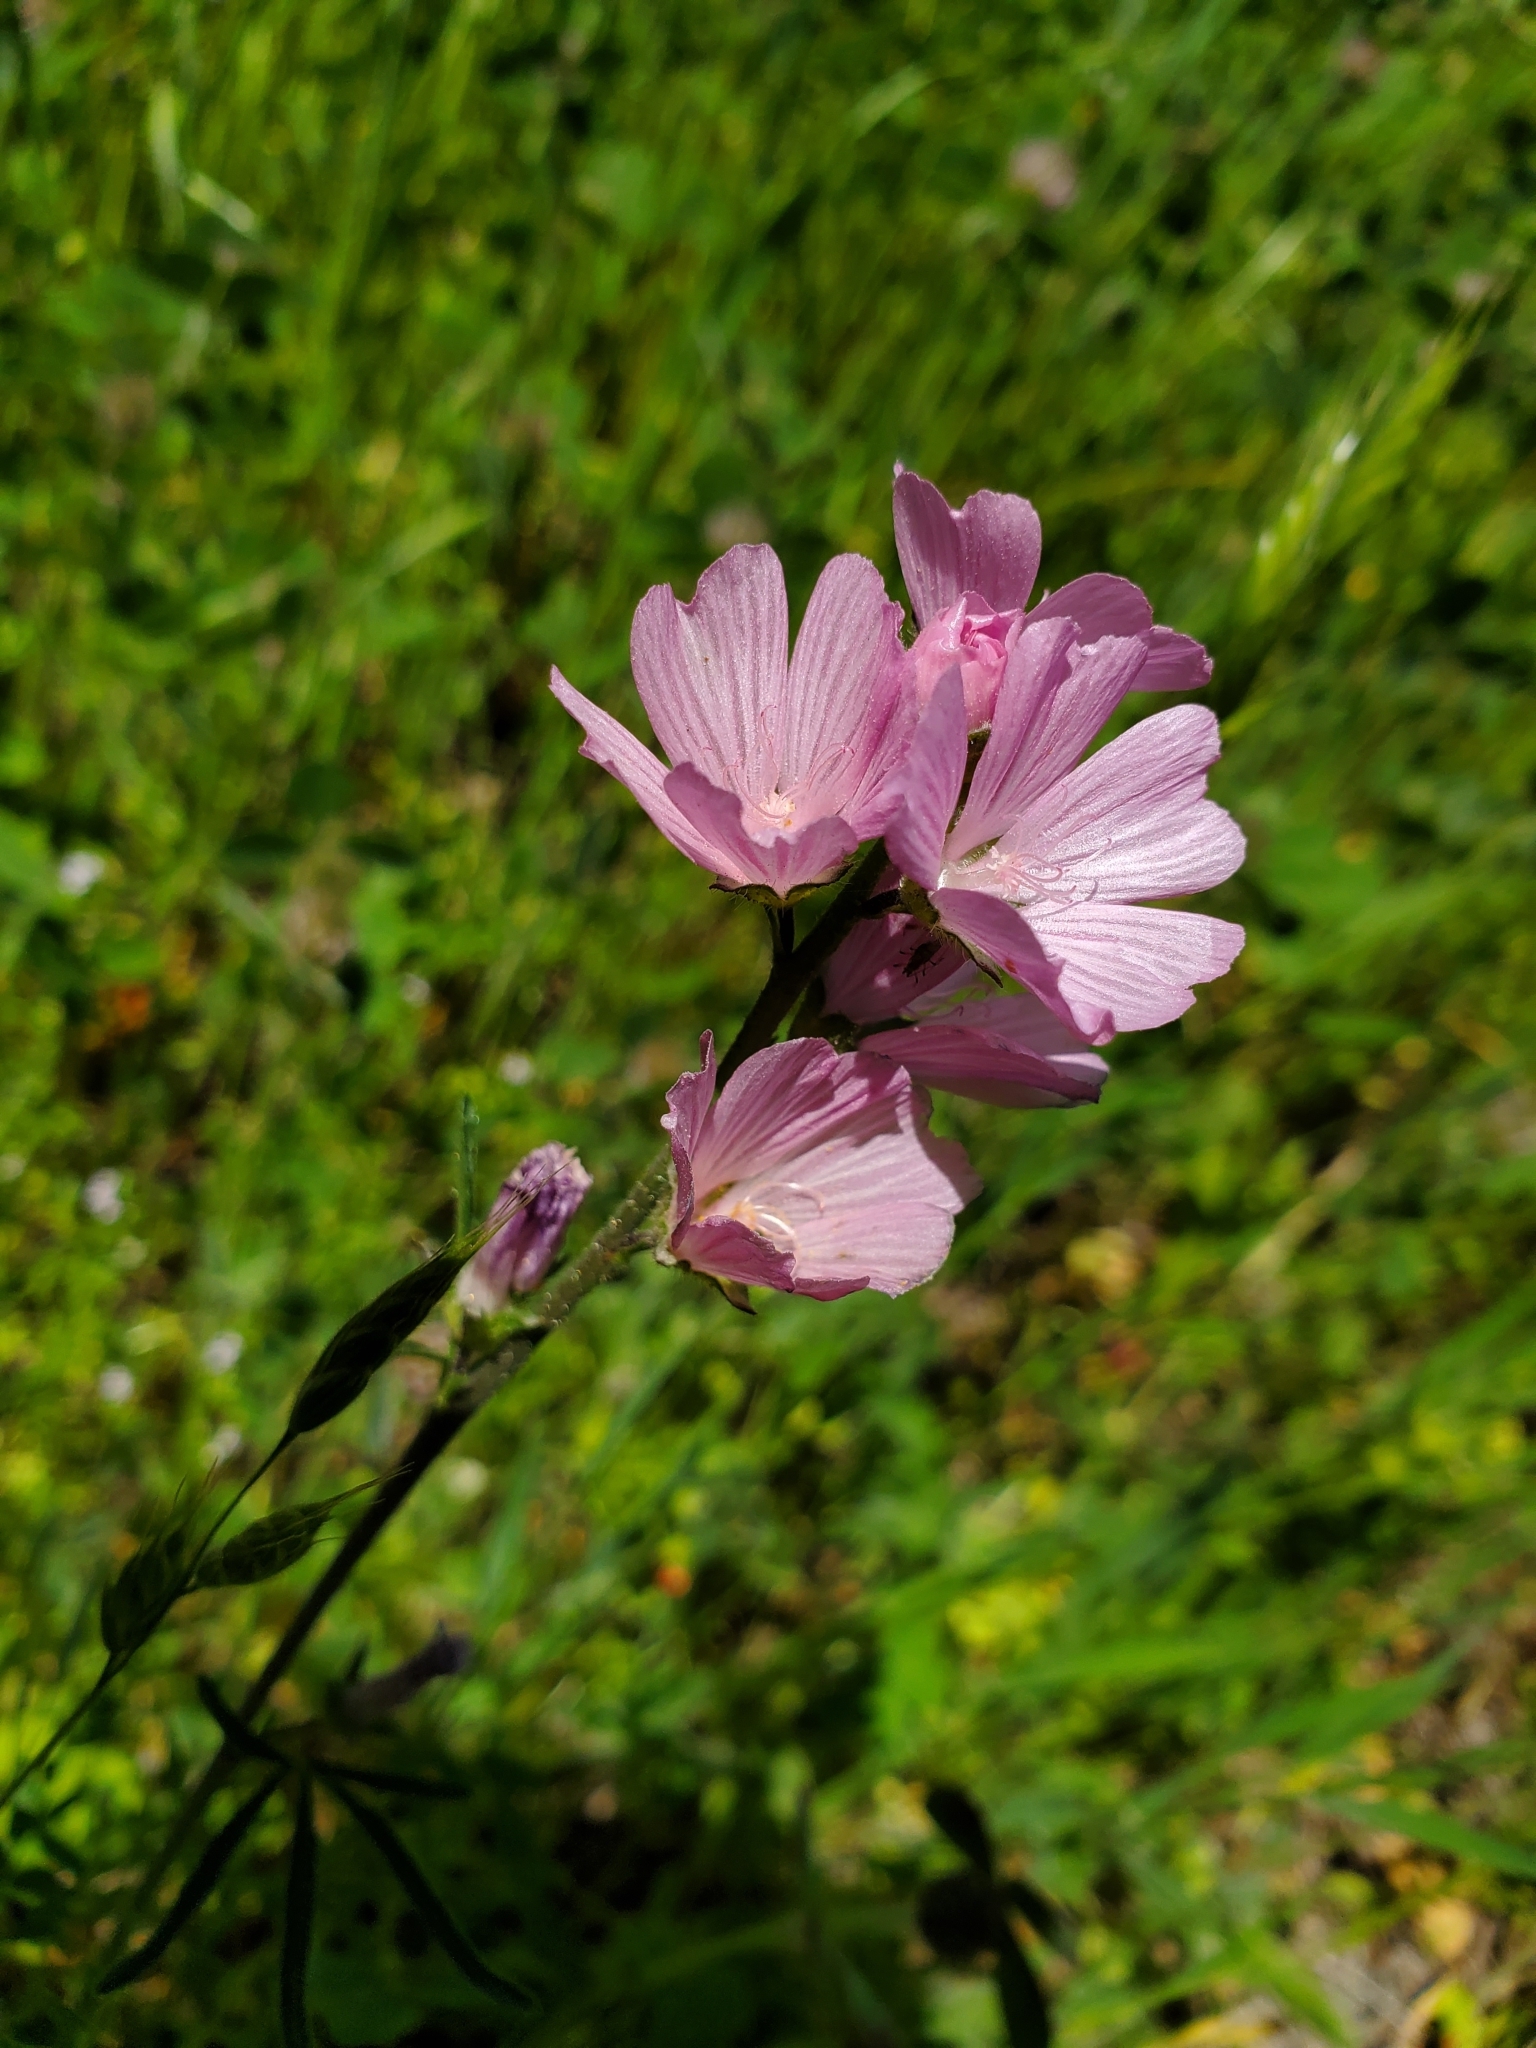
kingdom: Plantae
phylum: Tracheophyta
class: Magnoliopsida
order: Malvales
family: Malvaceae
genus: Sidalcea
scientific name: Sidalcea malviflora
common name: Greek mallow
